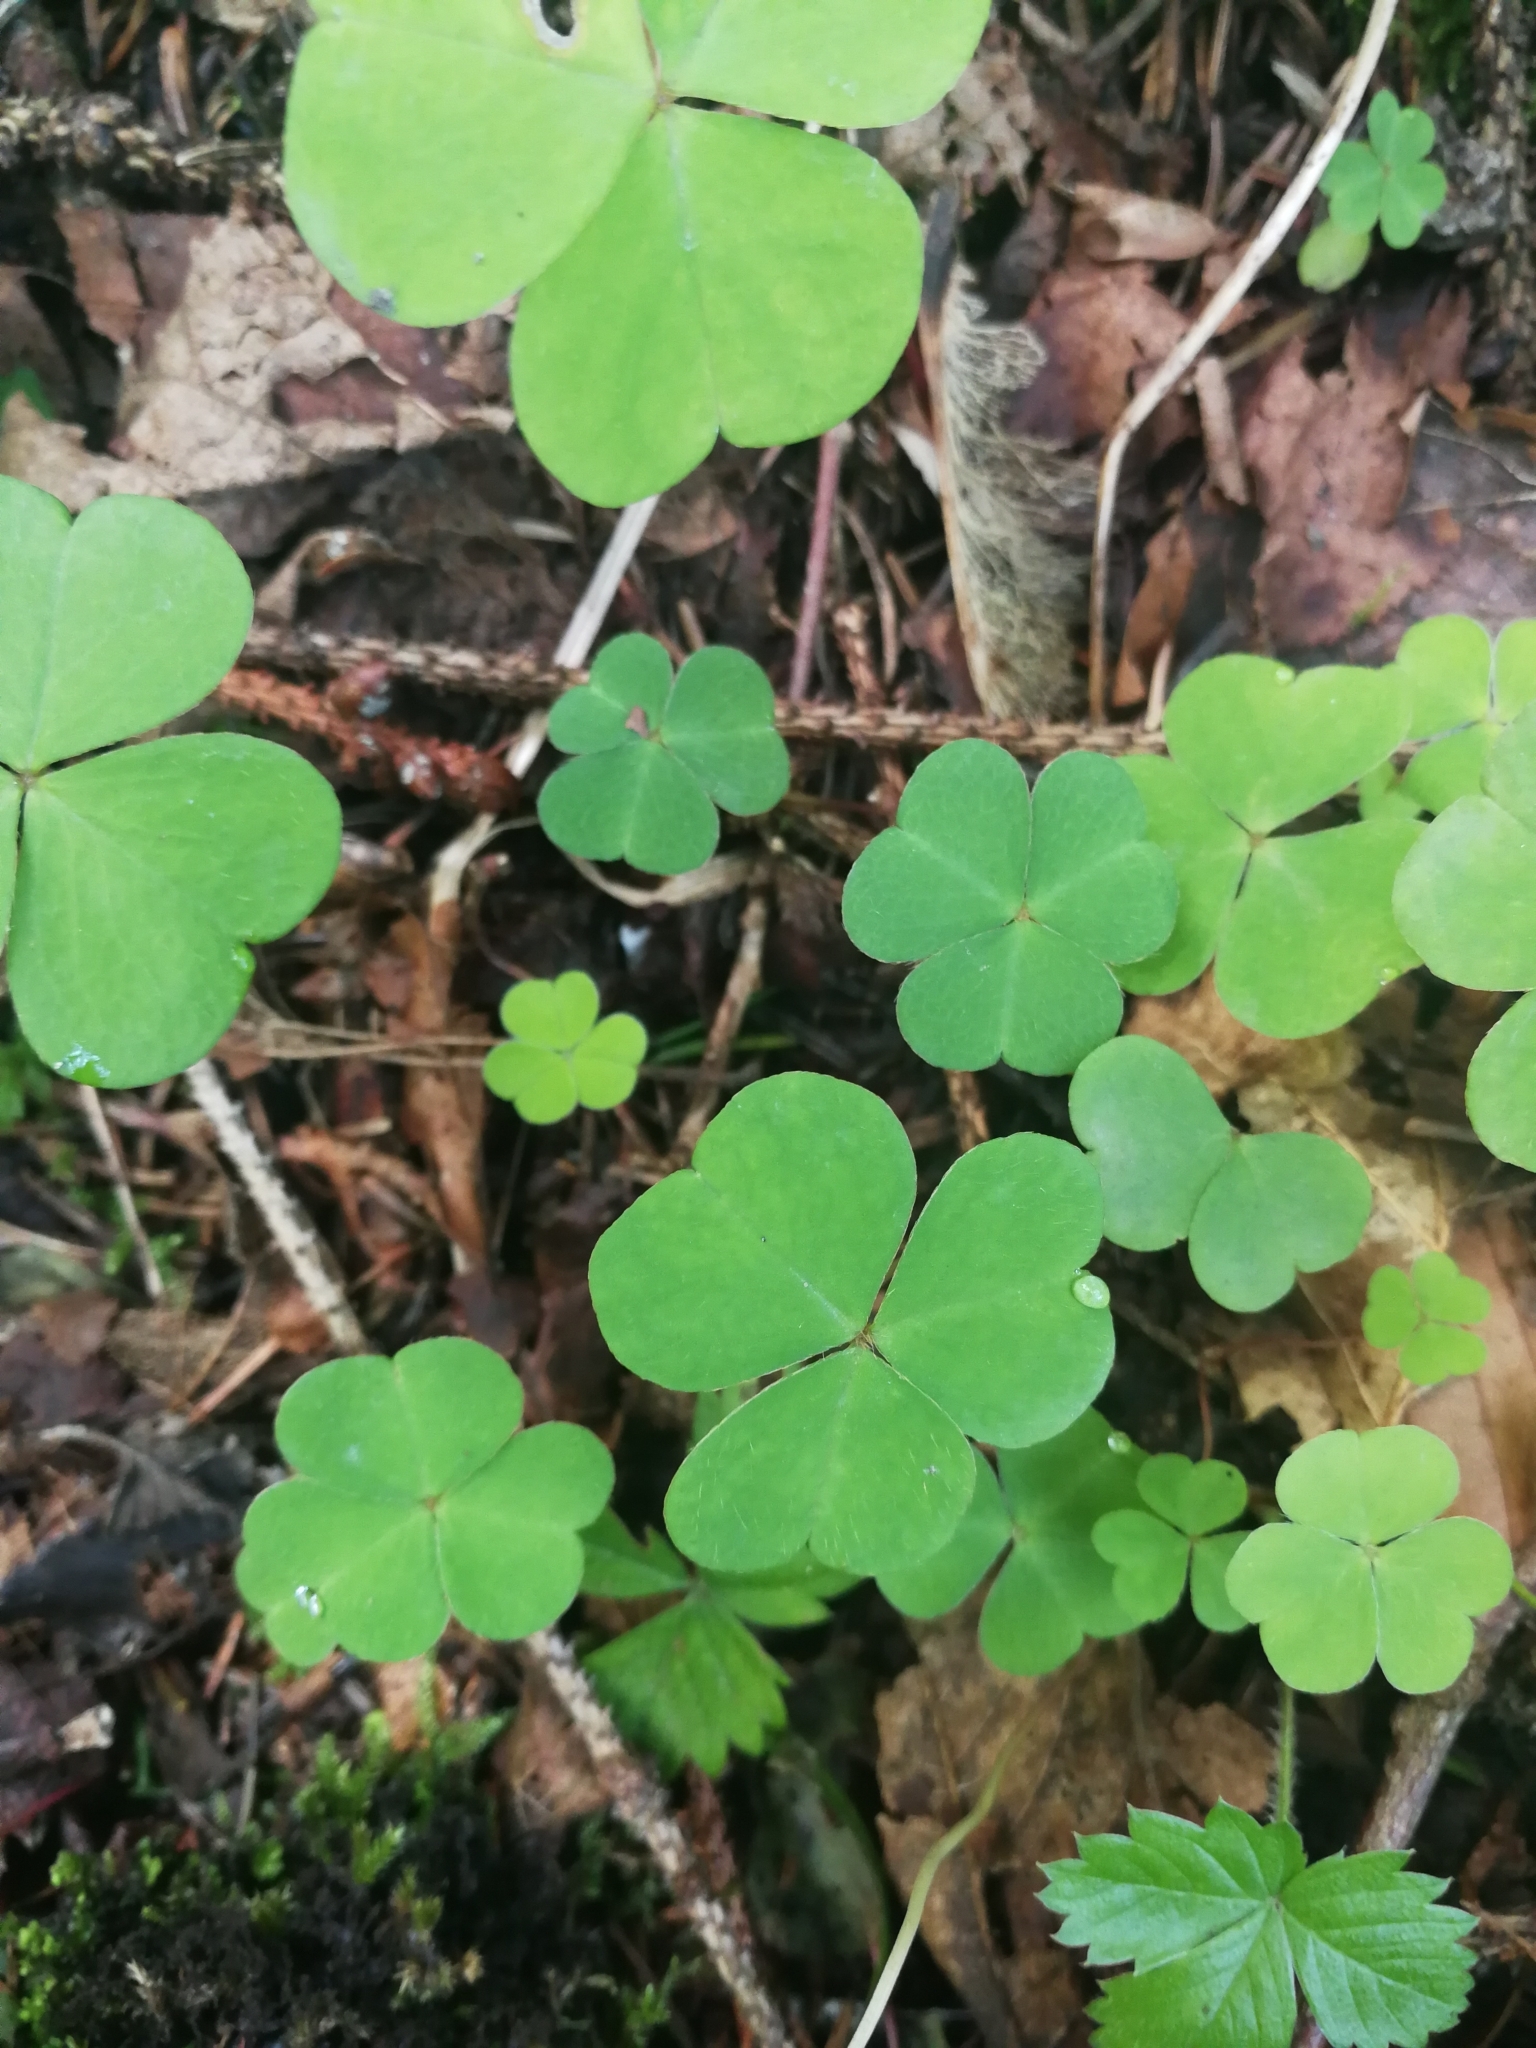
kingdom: Plantae
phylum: Tracheophyta
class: Magnoliopsida
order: Oxalidales
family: Oxalidaceae
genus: Oxalis
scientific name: Oxalis acetosella
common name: Wood-sorrel
